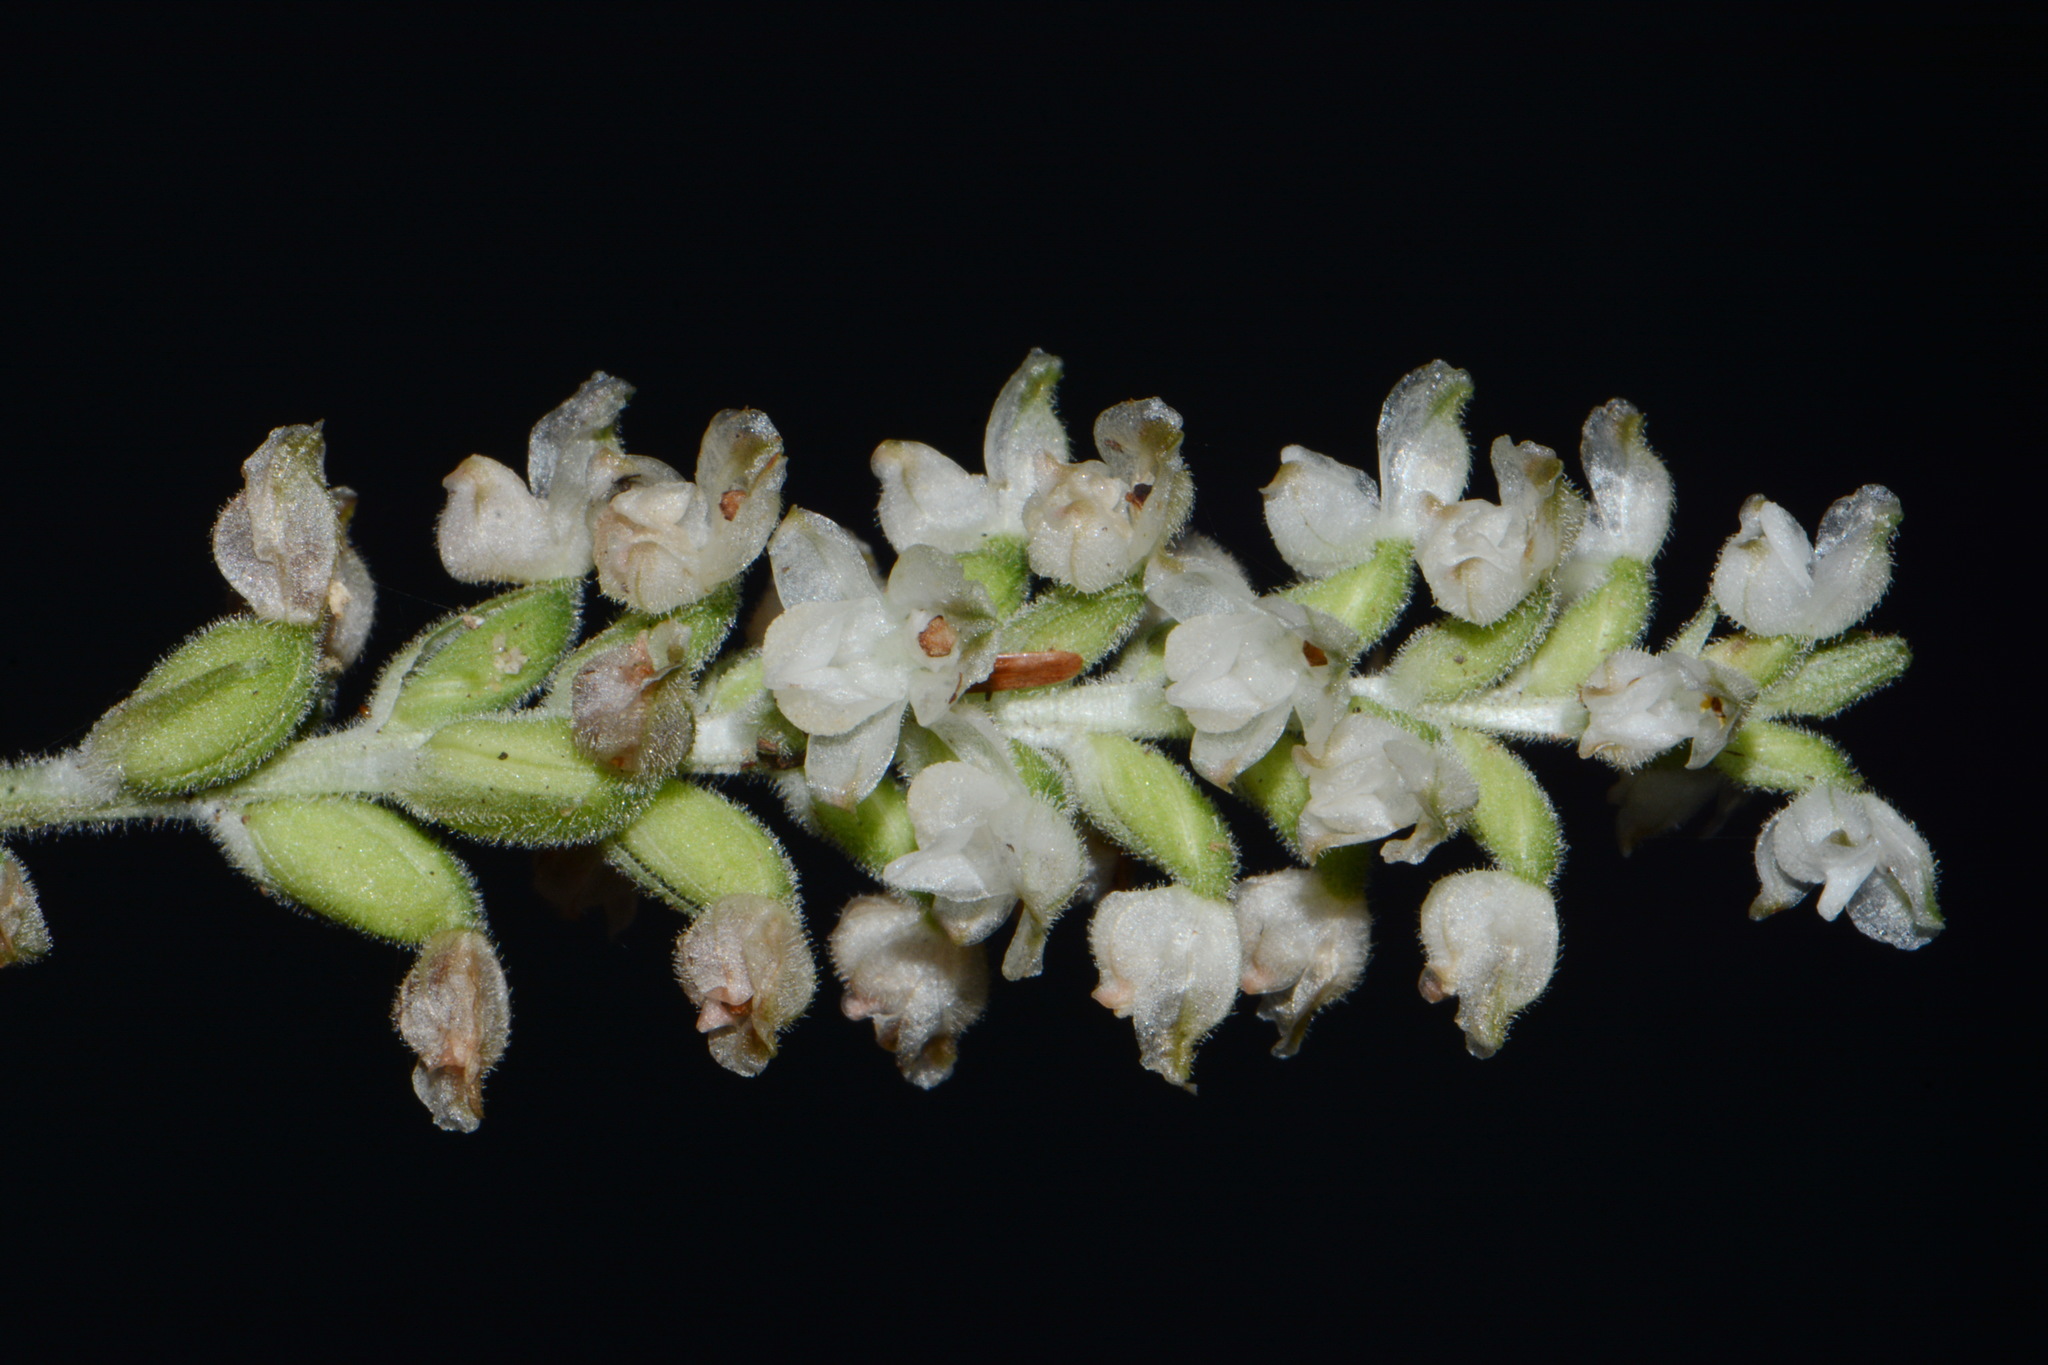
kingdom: Plantae
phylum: Tracheophyta
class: Liliopsida
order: Asparagales
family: Orchidaceae
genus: Goodyera
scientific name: Goodyera pubescens
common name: Downy rattlesnake-plantain
